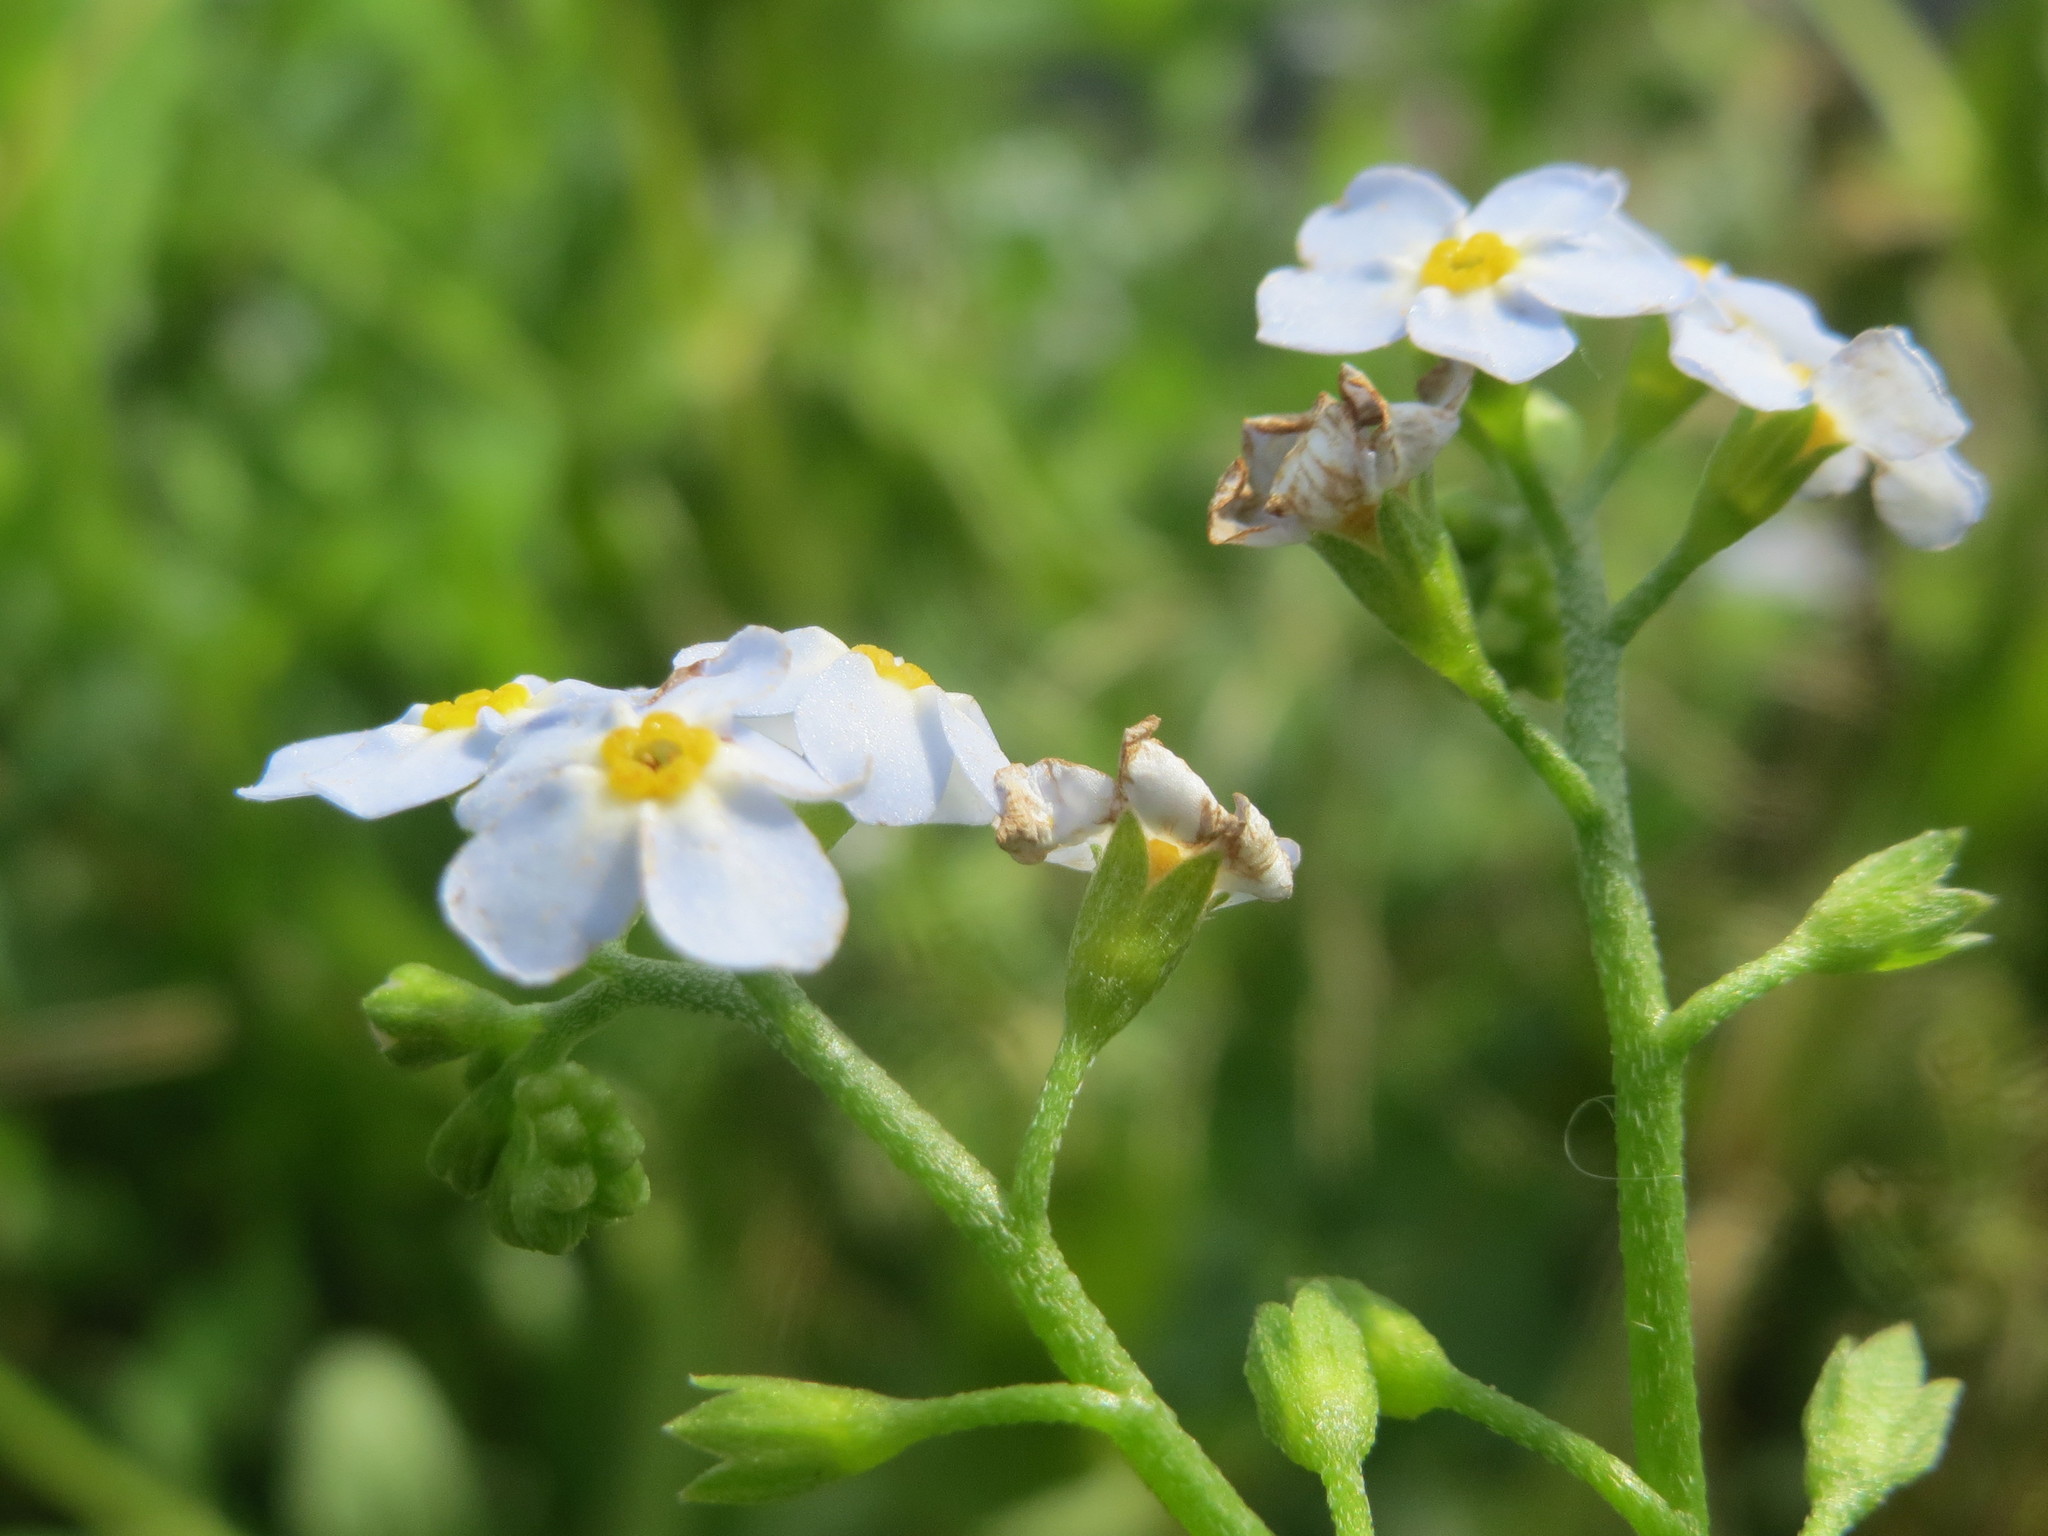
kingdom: Plantae
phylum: Tracheophyta
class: Magnoliopsida
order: Boraginales
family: Boraginaceae
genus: Myosotis
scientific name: Myosotis scorpioides
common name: Water forget-me-not
